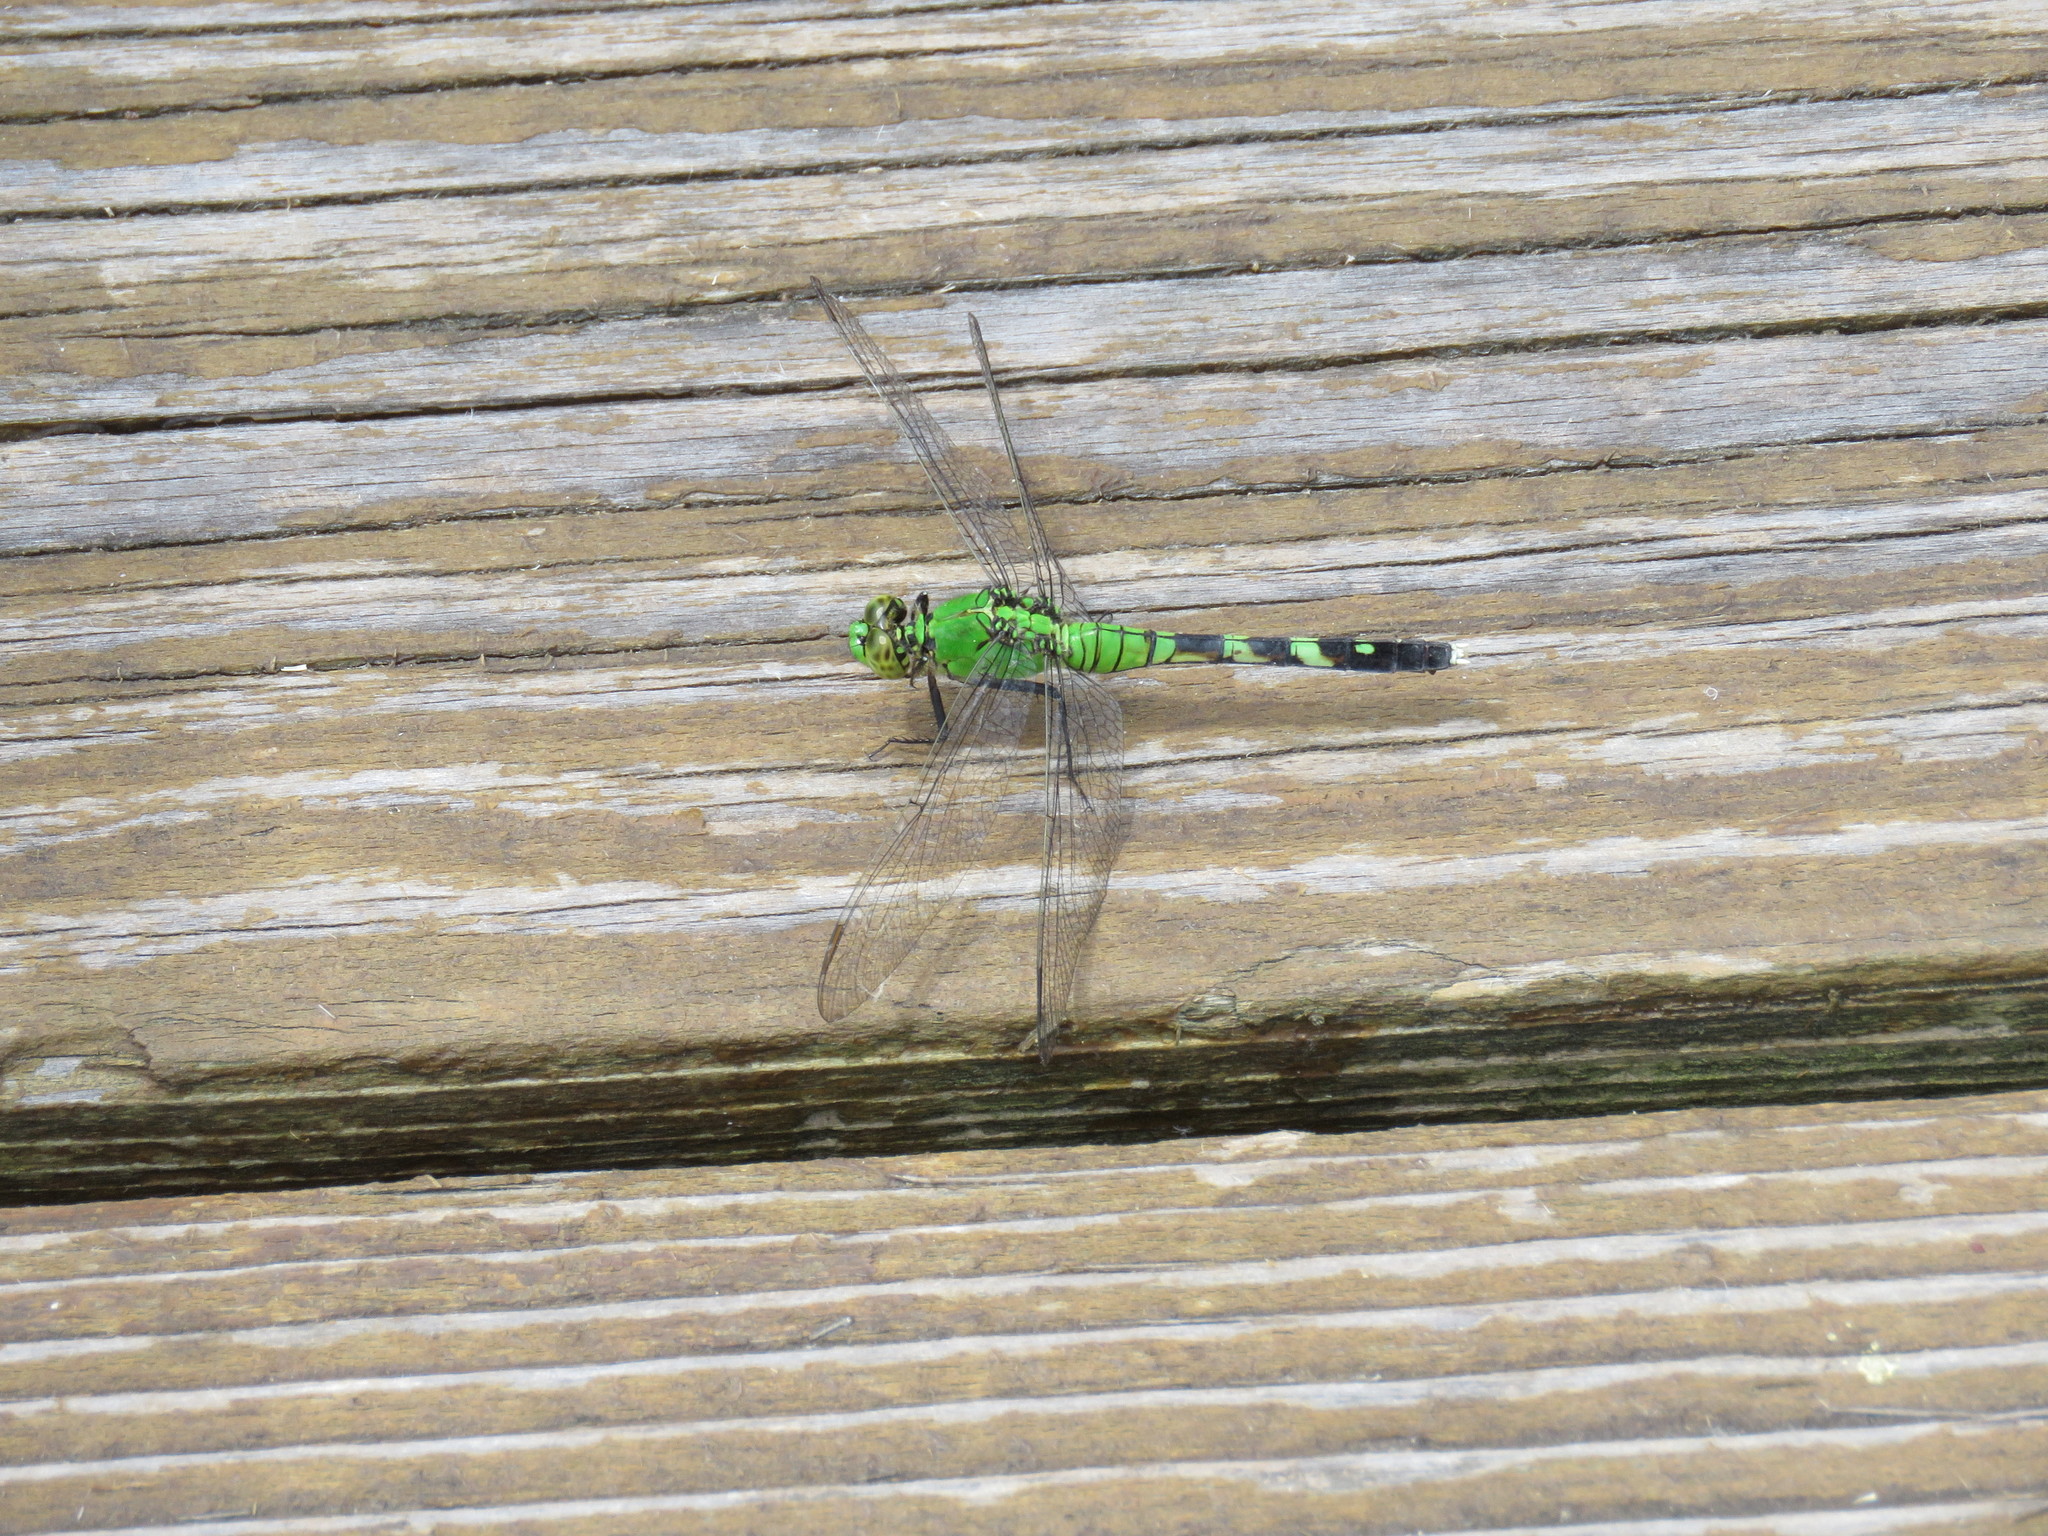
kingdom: Animalia
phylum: Arthropoda
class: Insecta
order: Odonata
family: Libellulidae
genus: Erythemis
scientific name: Erythemis simplicicollis
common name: Eastern pondhawk
